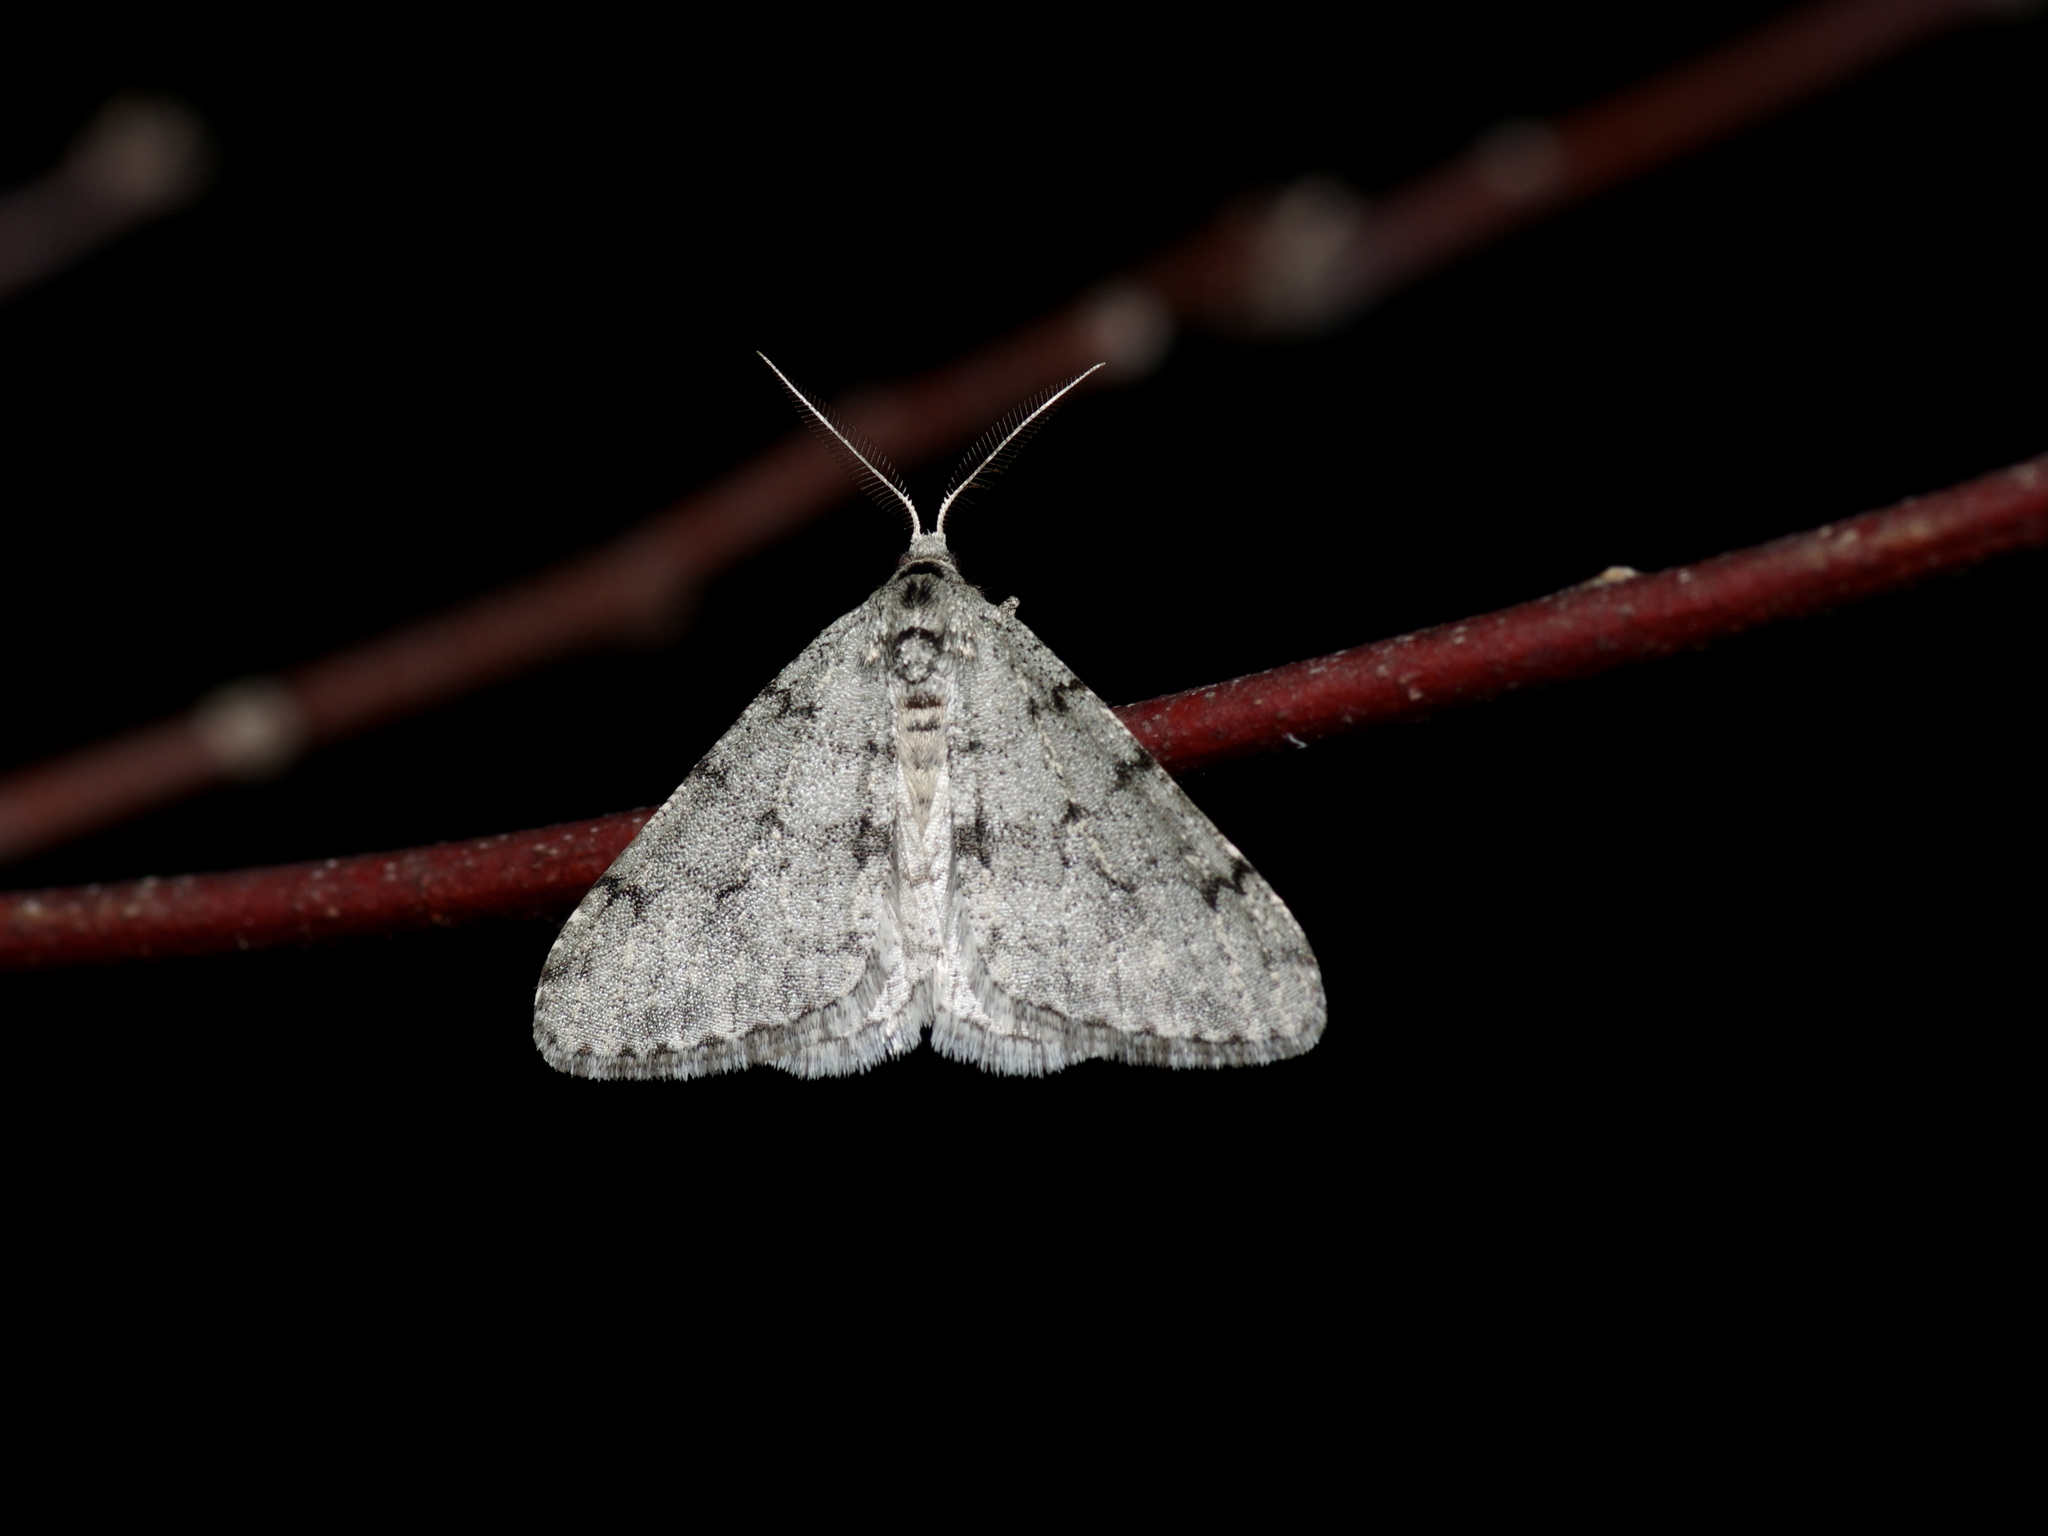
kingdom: Animalia
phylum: Arthropoda
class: Insecta
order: Lepidoptera
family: Geometridae
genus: Phigalia
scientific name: Phigalia strigataria
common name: Small phigalia
